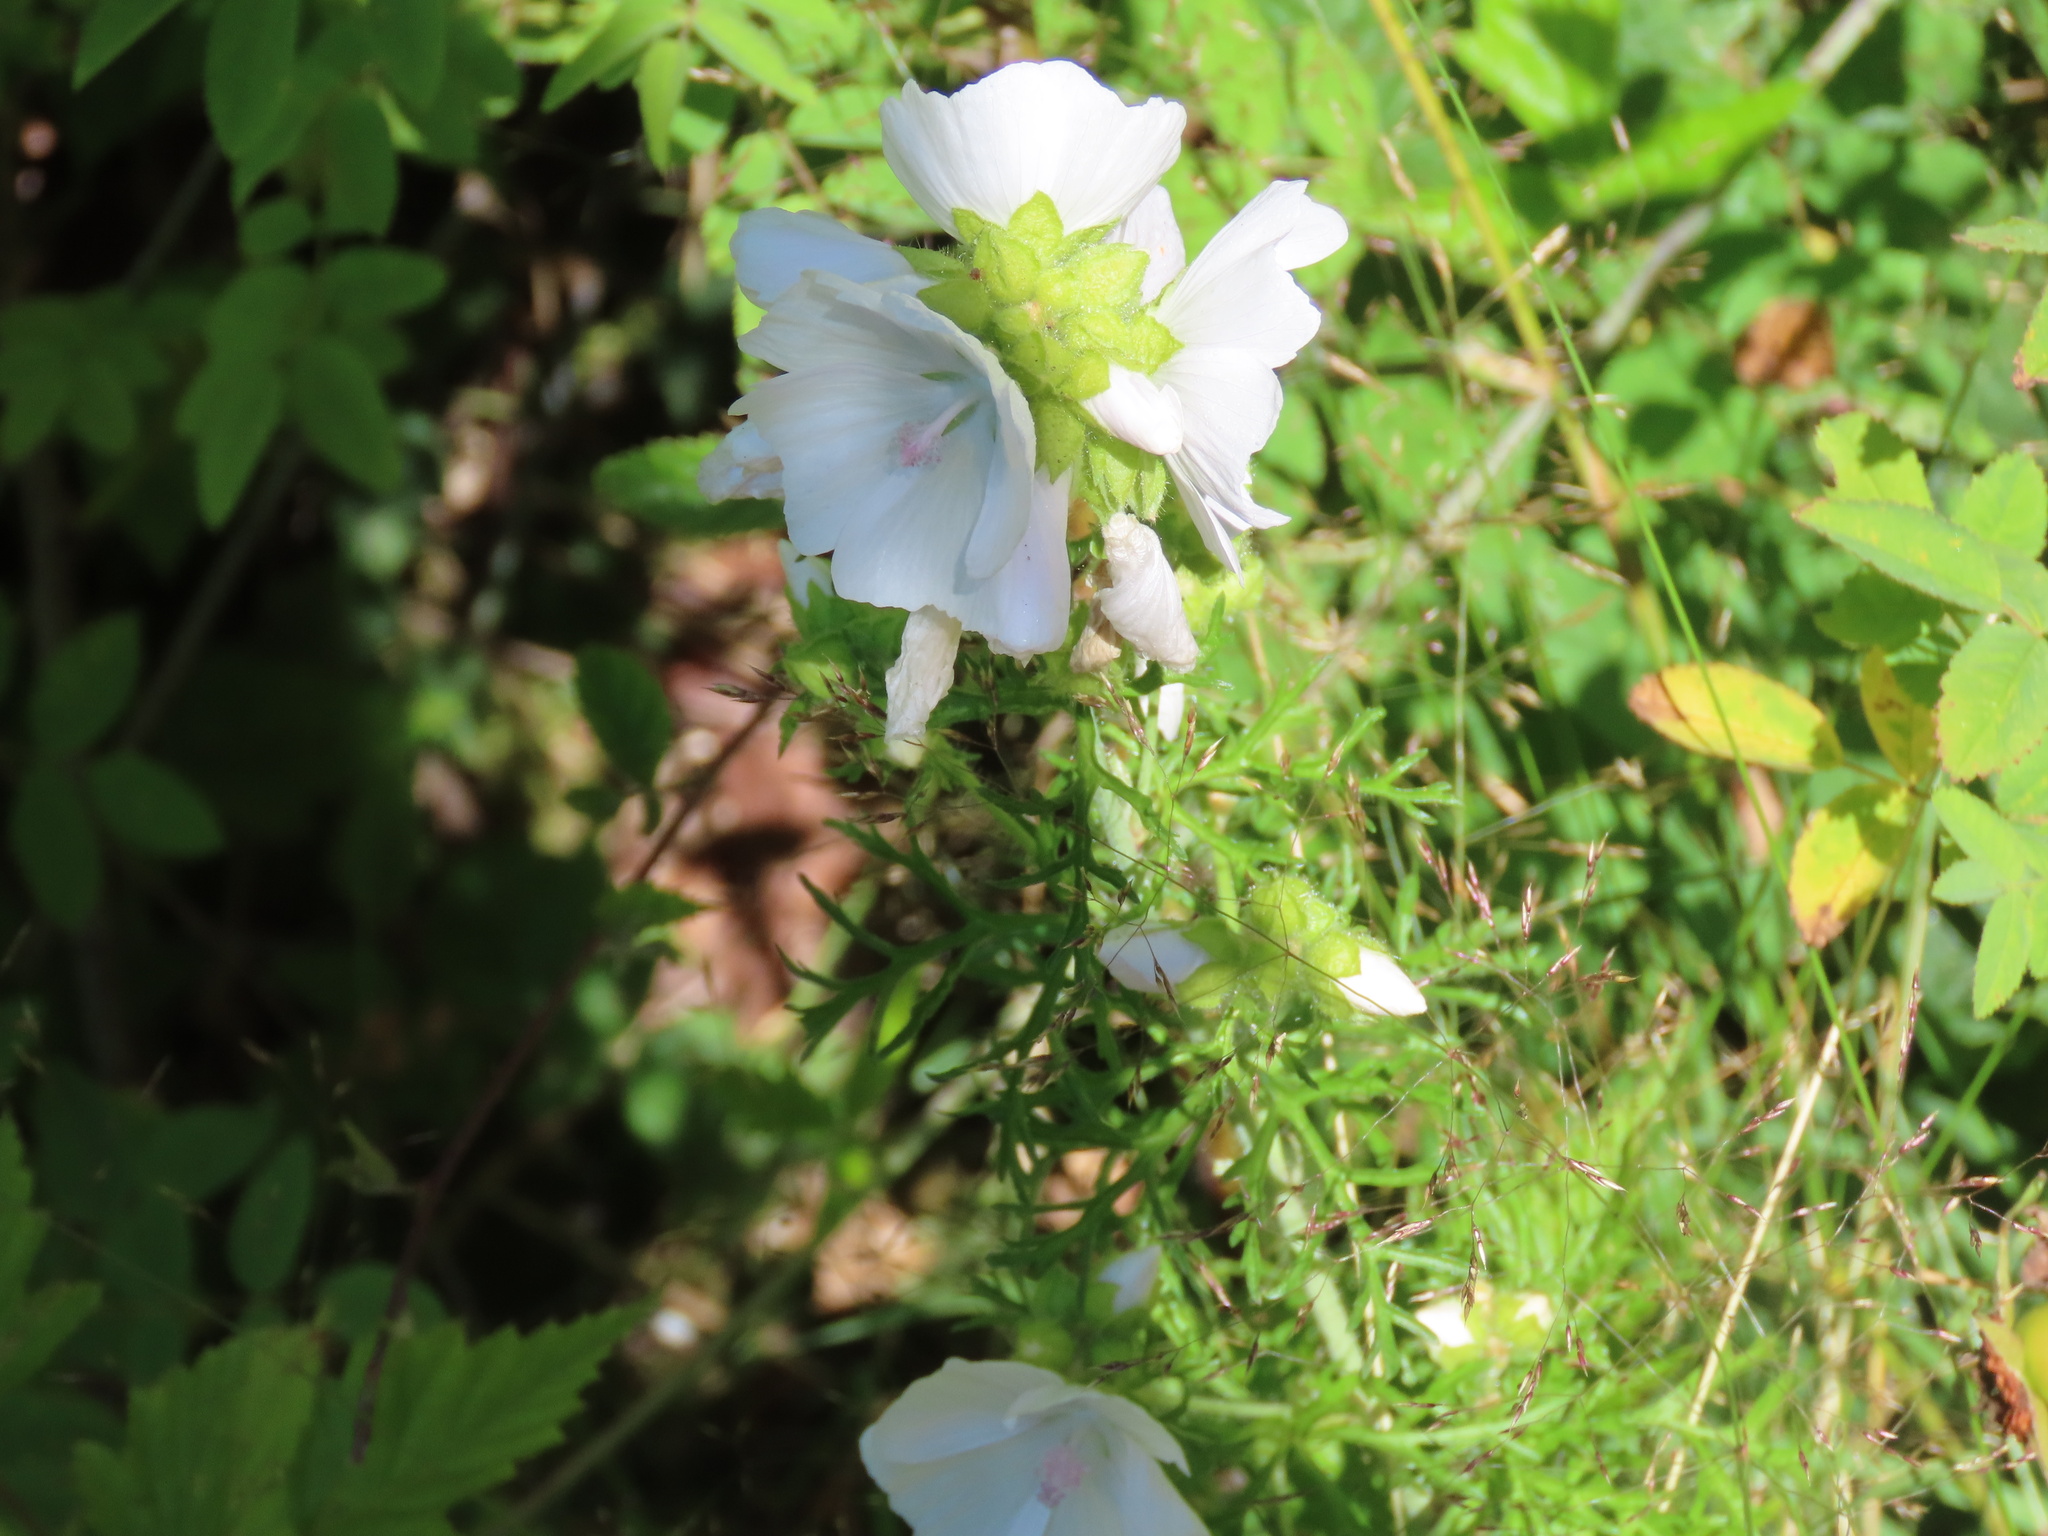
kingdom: Plantae
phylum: Tracheophyta
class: Magnoliopsida
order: Malvales
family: Malvaceae
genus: Malva
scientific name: Malva moschata
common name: Musk mallow
